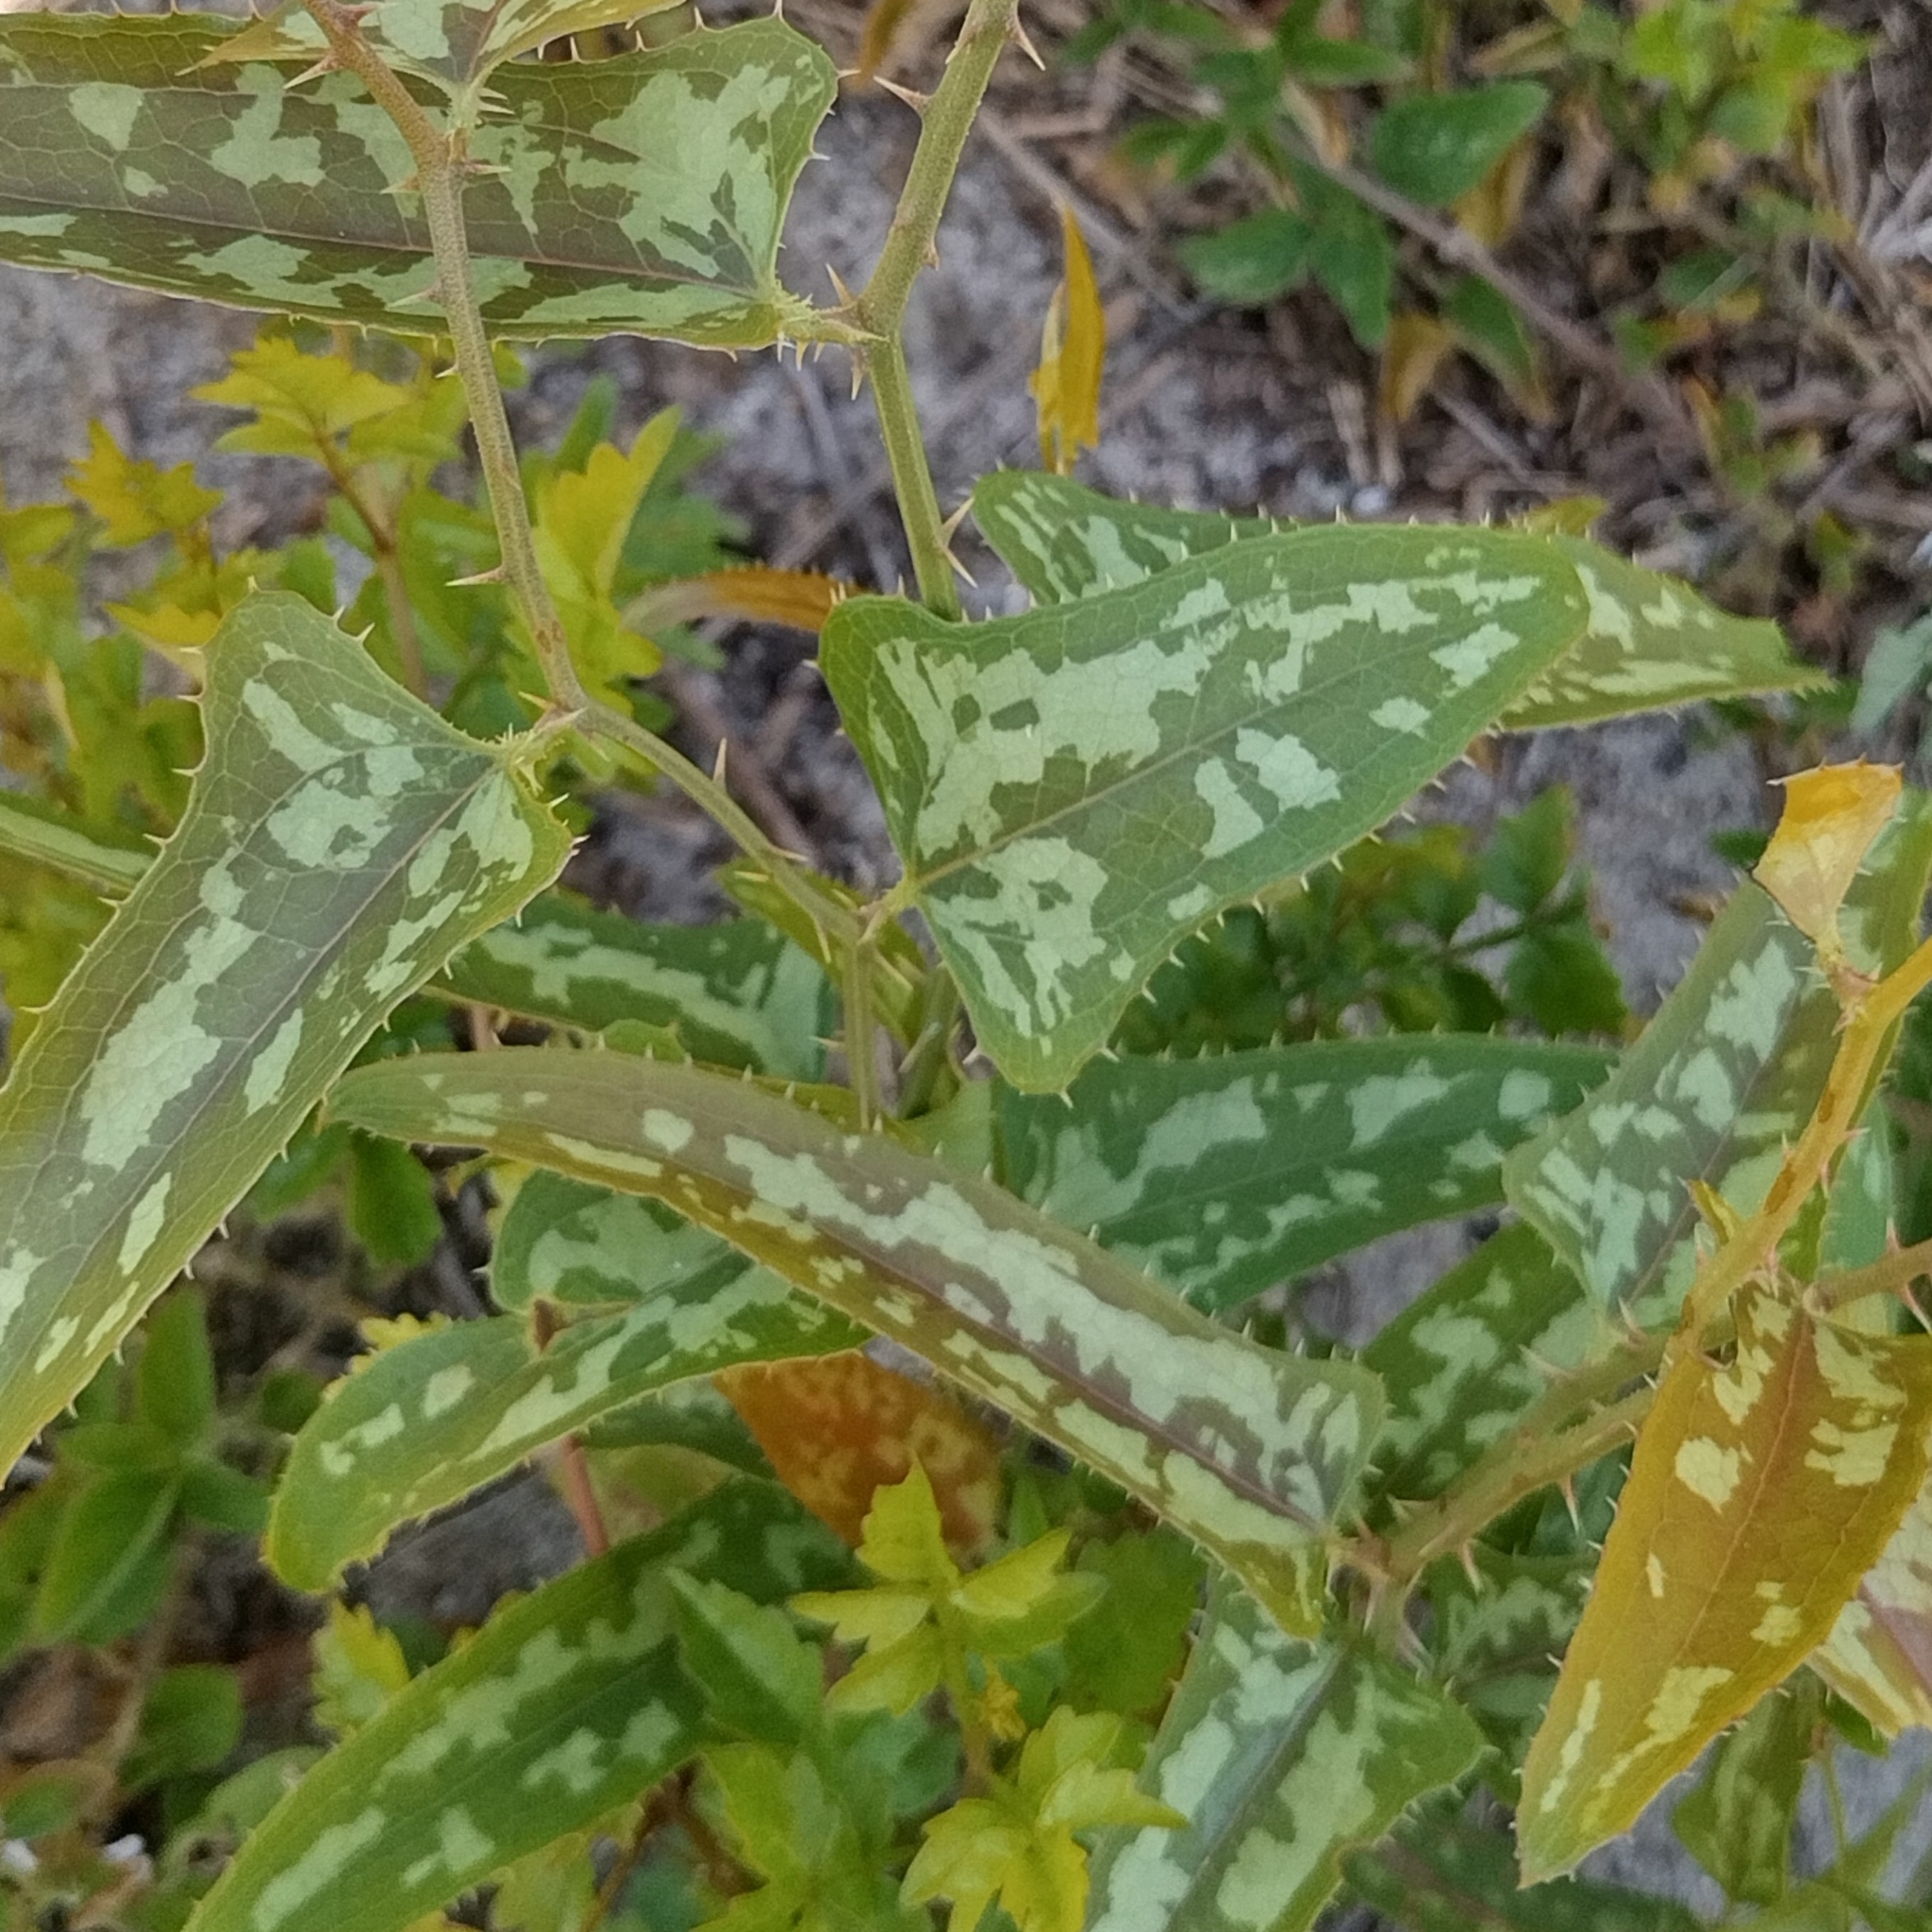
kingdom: Plantae
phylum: Tracheophyta
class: Liliopsida
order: Liliales
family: Smilacaceae
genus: Smilax
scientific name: Smilax bona-nox
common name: Catbrier
